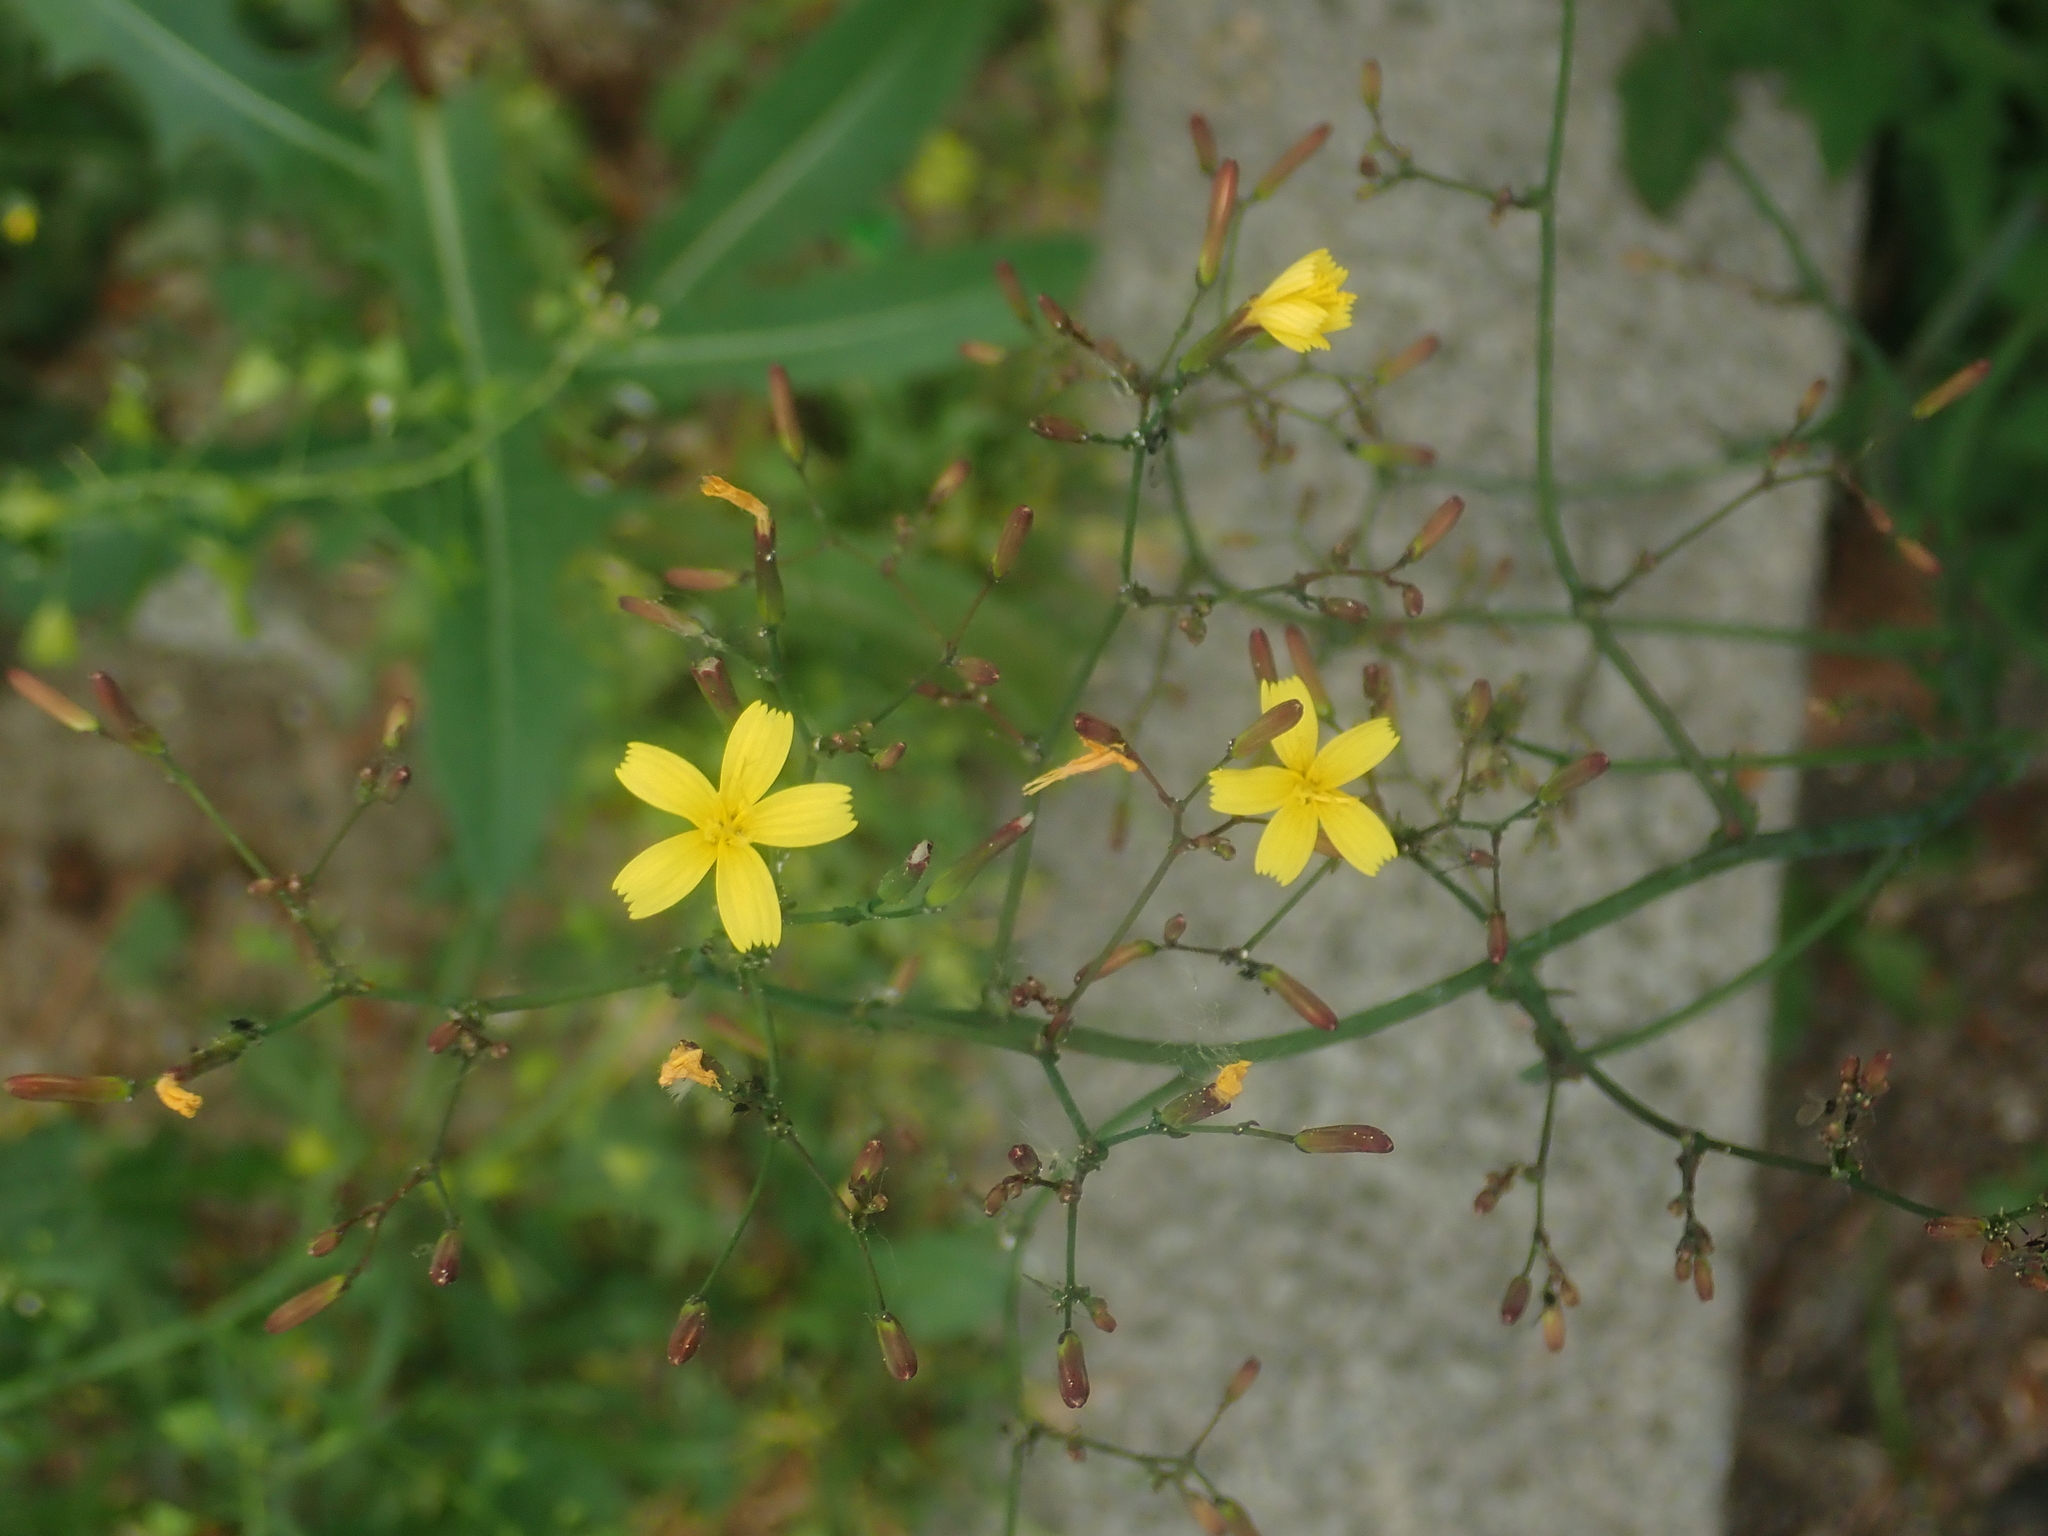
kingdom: Plantae
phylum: Tracheophyta
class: Magnoliopsida
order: Asterales
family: Asteraceae
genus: Mycelis
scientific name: Mycelis muralis
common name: Wall lettuce
